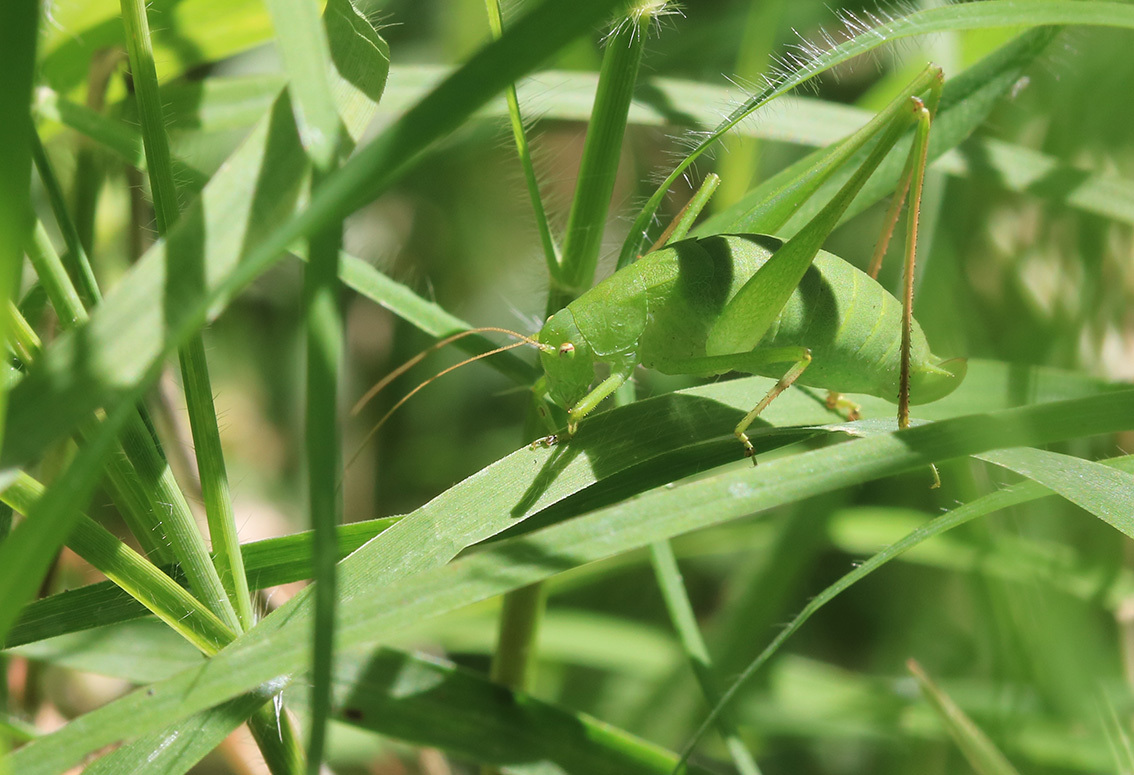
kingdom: Animalia
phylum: Arthropoda
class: Insecta
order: Orthoptera
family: Tettigoniidae
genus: Anisophya
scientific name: Anisophya
